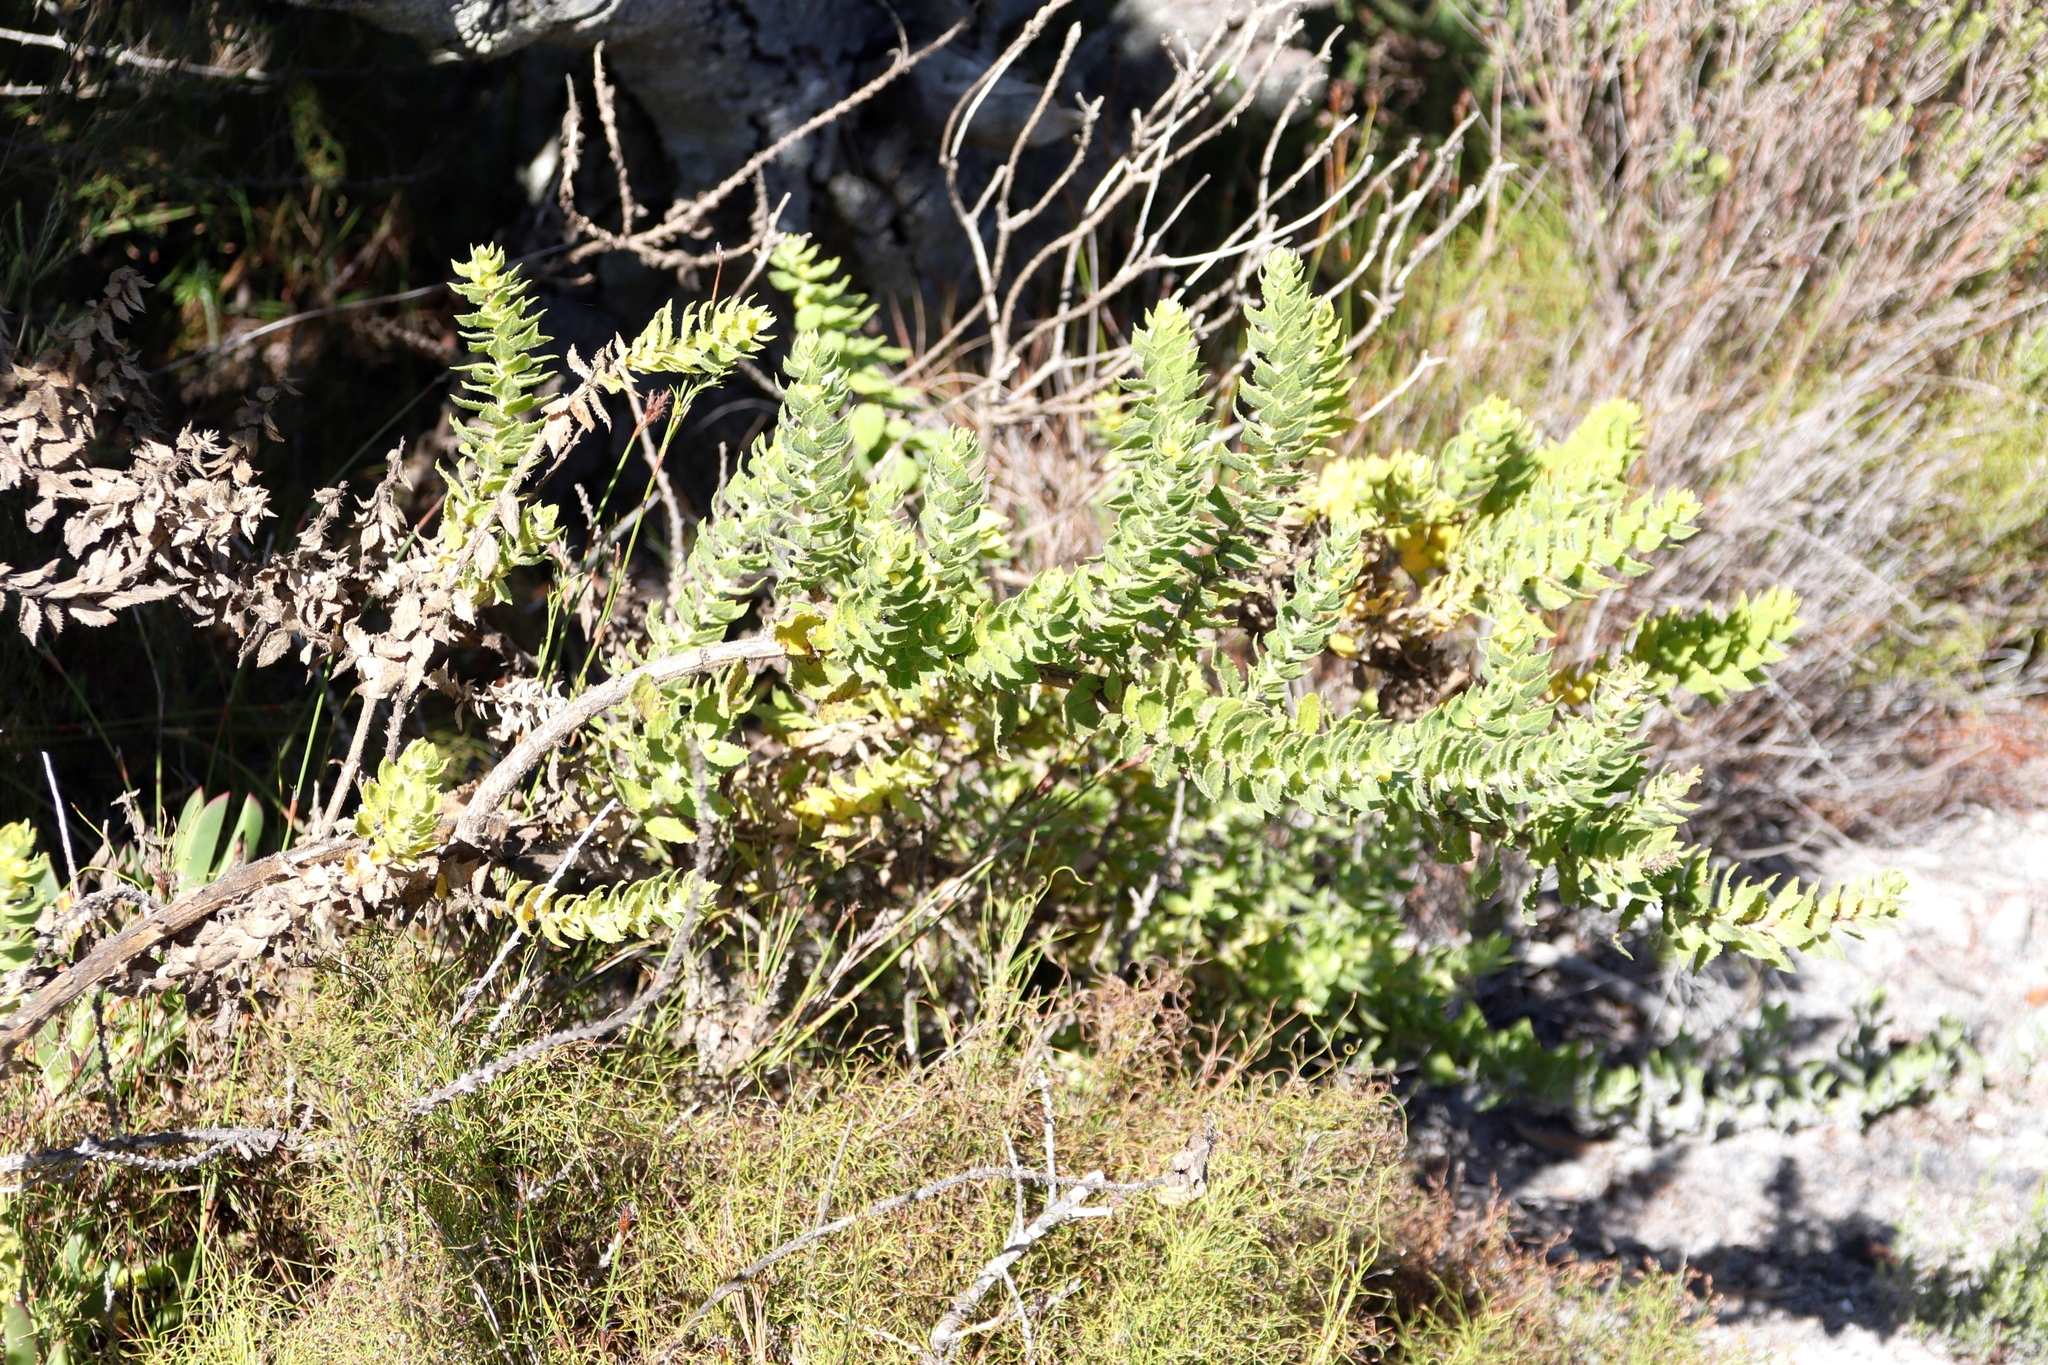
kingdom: Plantae
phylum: Tracheophyta
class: Magnoliopsida
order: Lamiales
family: Scrophulariaceae
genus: Oftia
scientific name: Oftia africana
